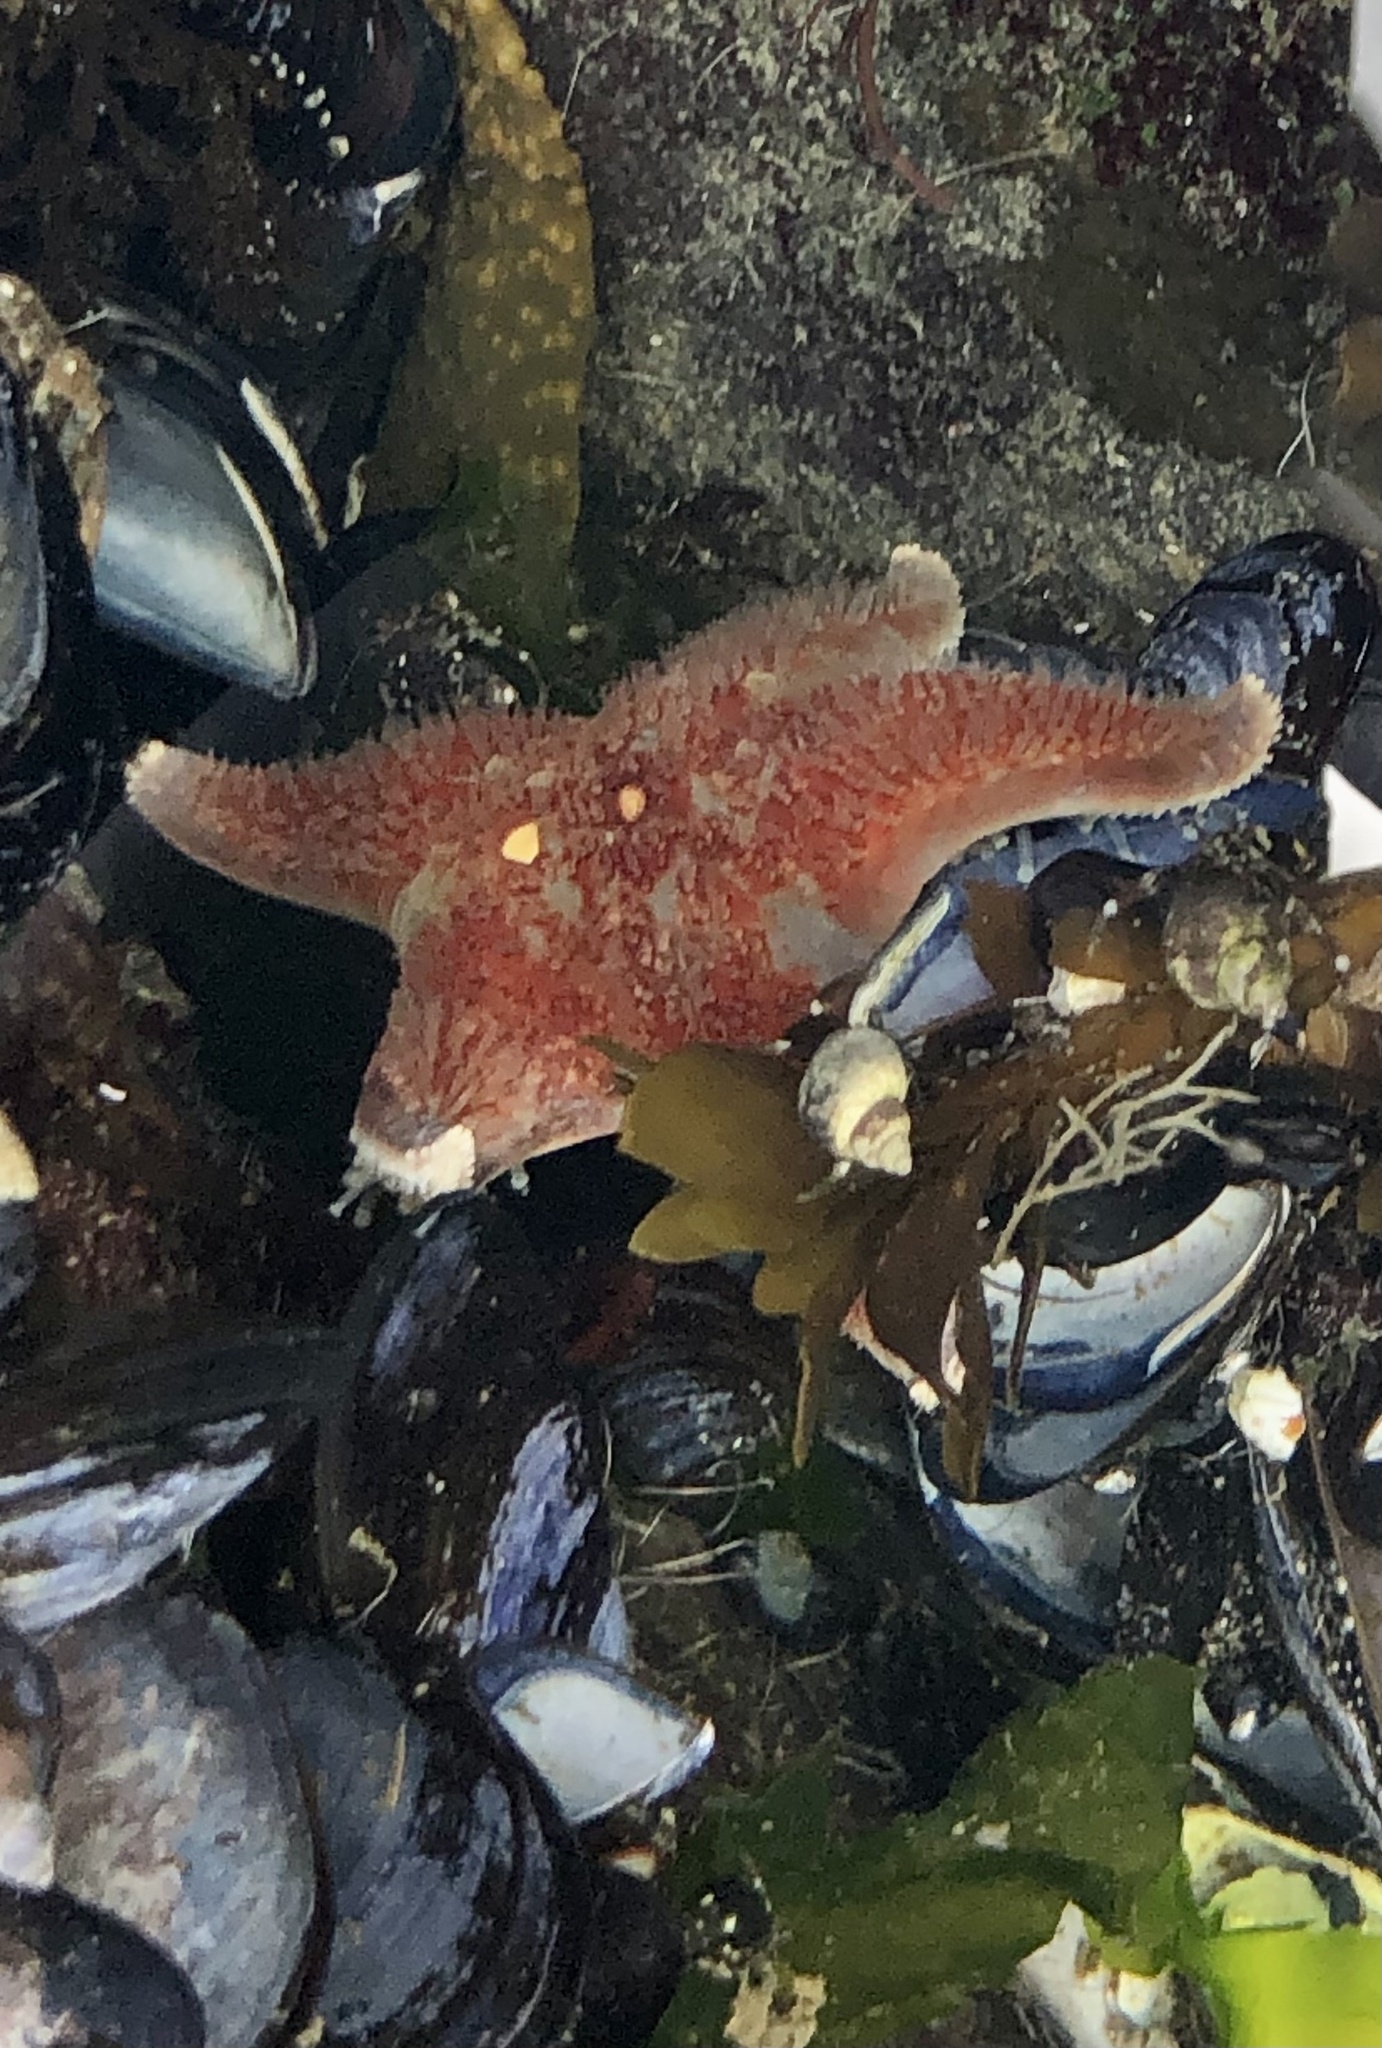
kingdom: Animalia
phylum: Echinodermata
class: Asteroidea
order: Valvatida
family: Asteropseidae
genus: Dermasterias
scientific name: Dermasterias imbricata
